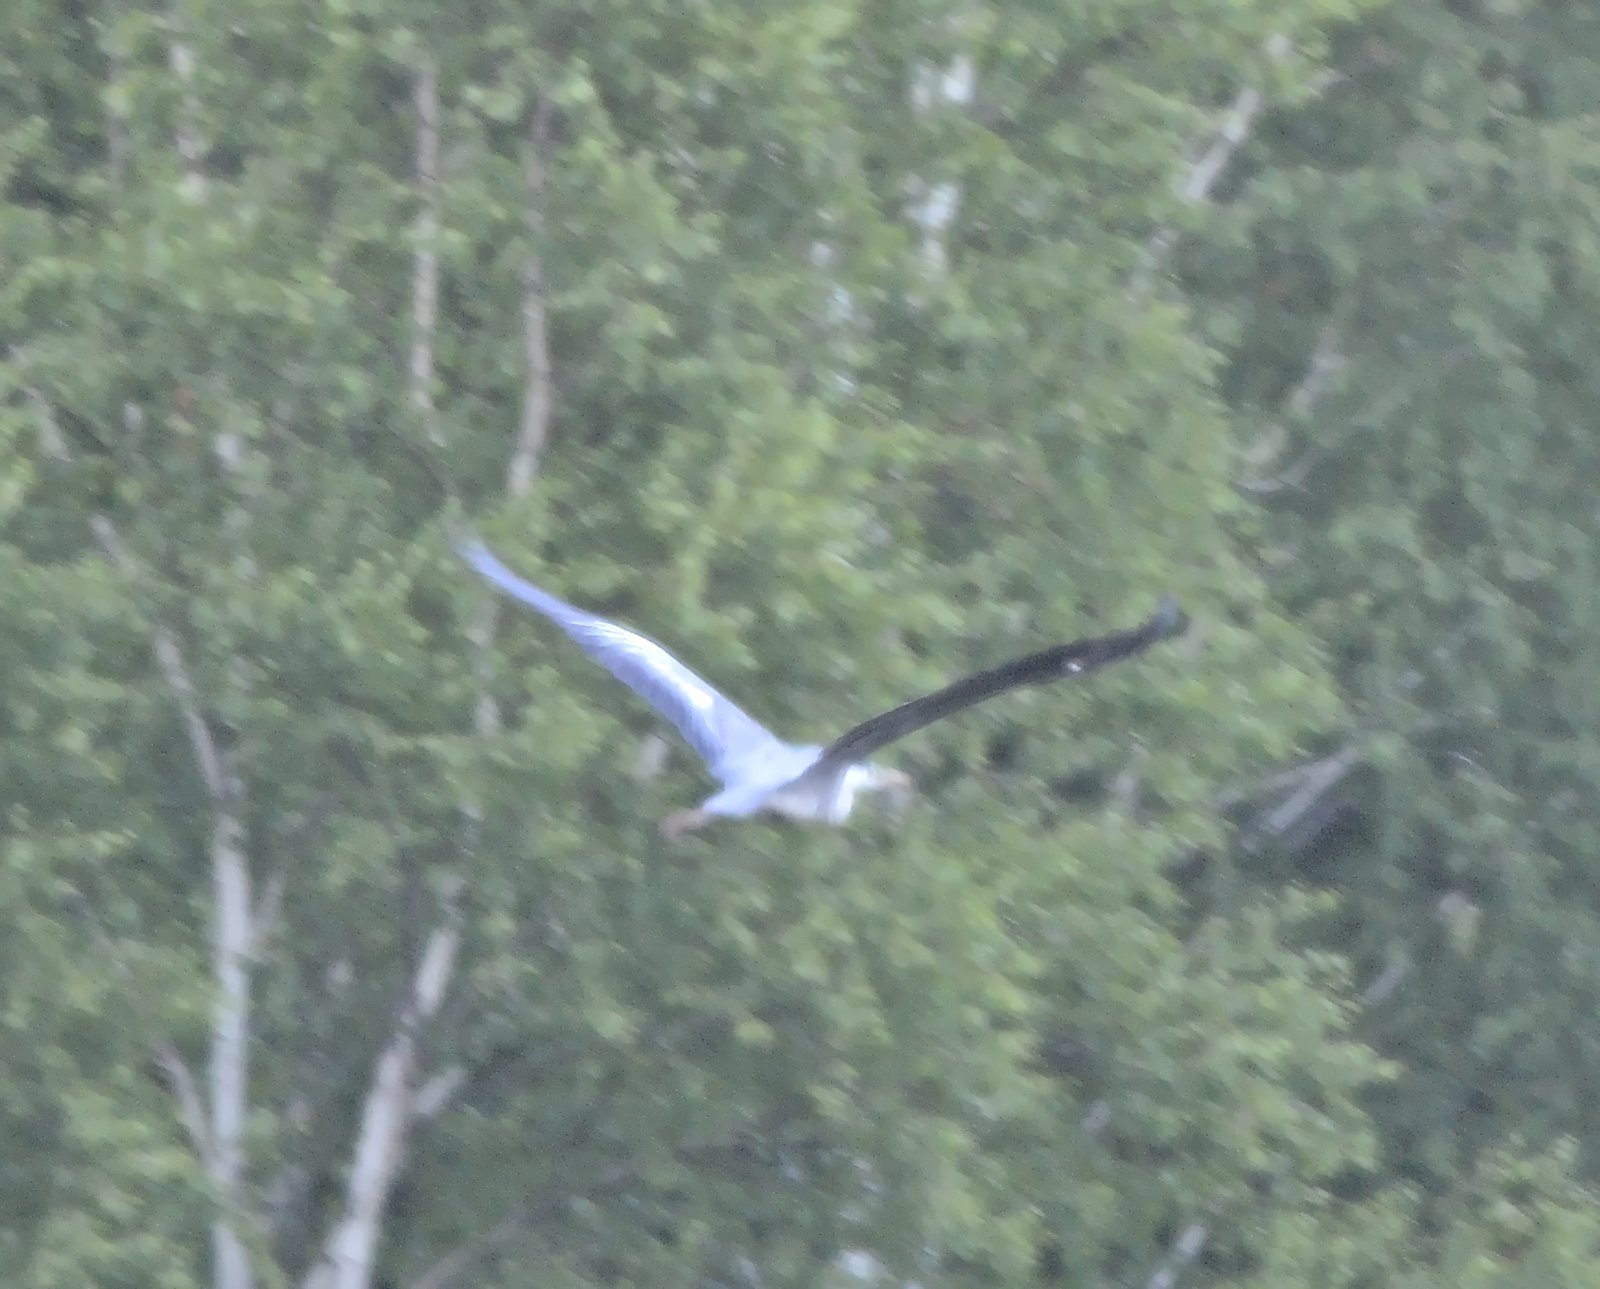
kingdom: Animalia
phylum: Chordata
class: Aves
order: Pelecaniformes
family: Ardeidae
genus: Ardea
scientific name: Ardea cinerea
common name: Grey heron
